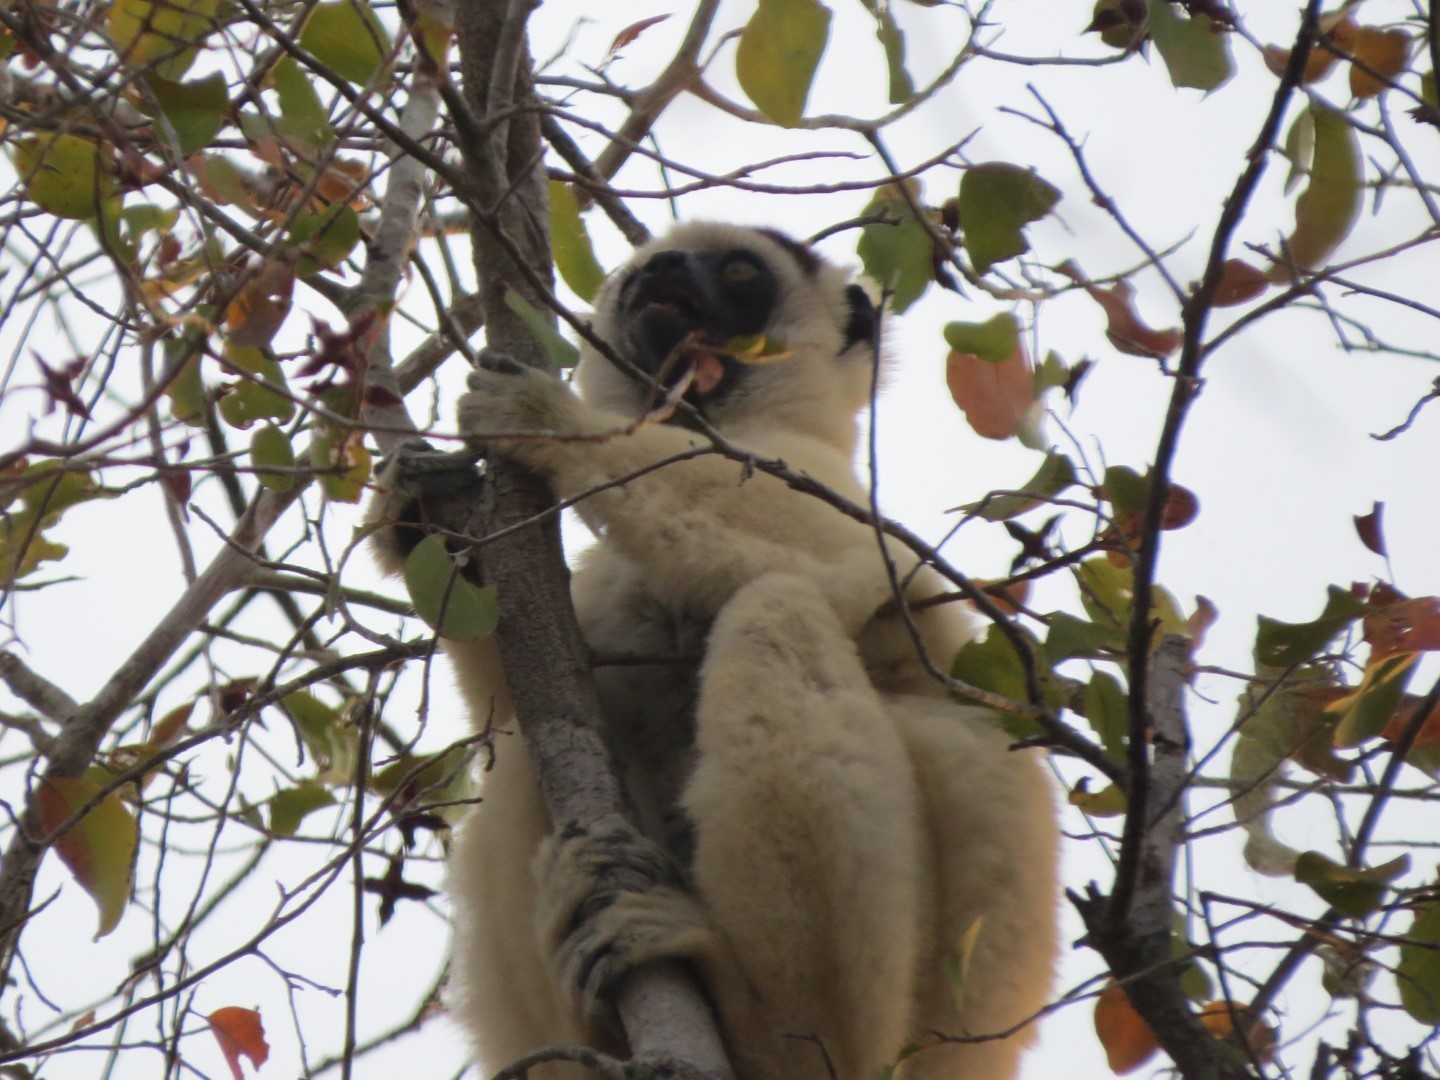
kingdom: Animalia
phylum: Chordata
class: Mammalia
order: Primates
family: Indriidae
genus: Propithecus
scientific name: Propithecus verreauxi
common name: Verreaux's sifaka
